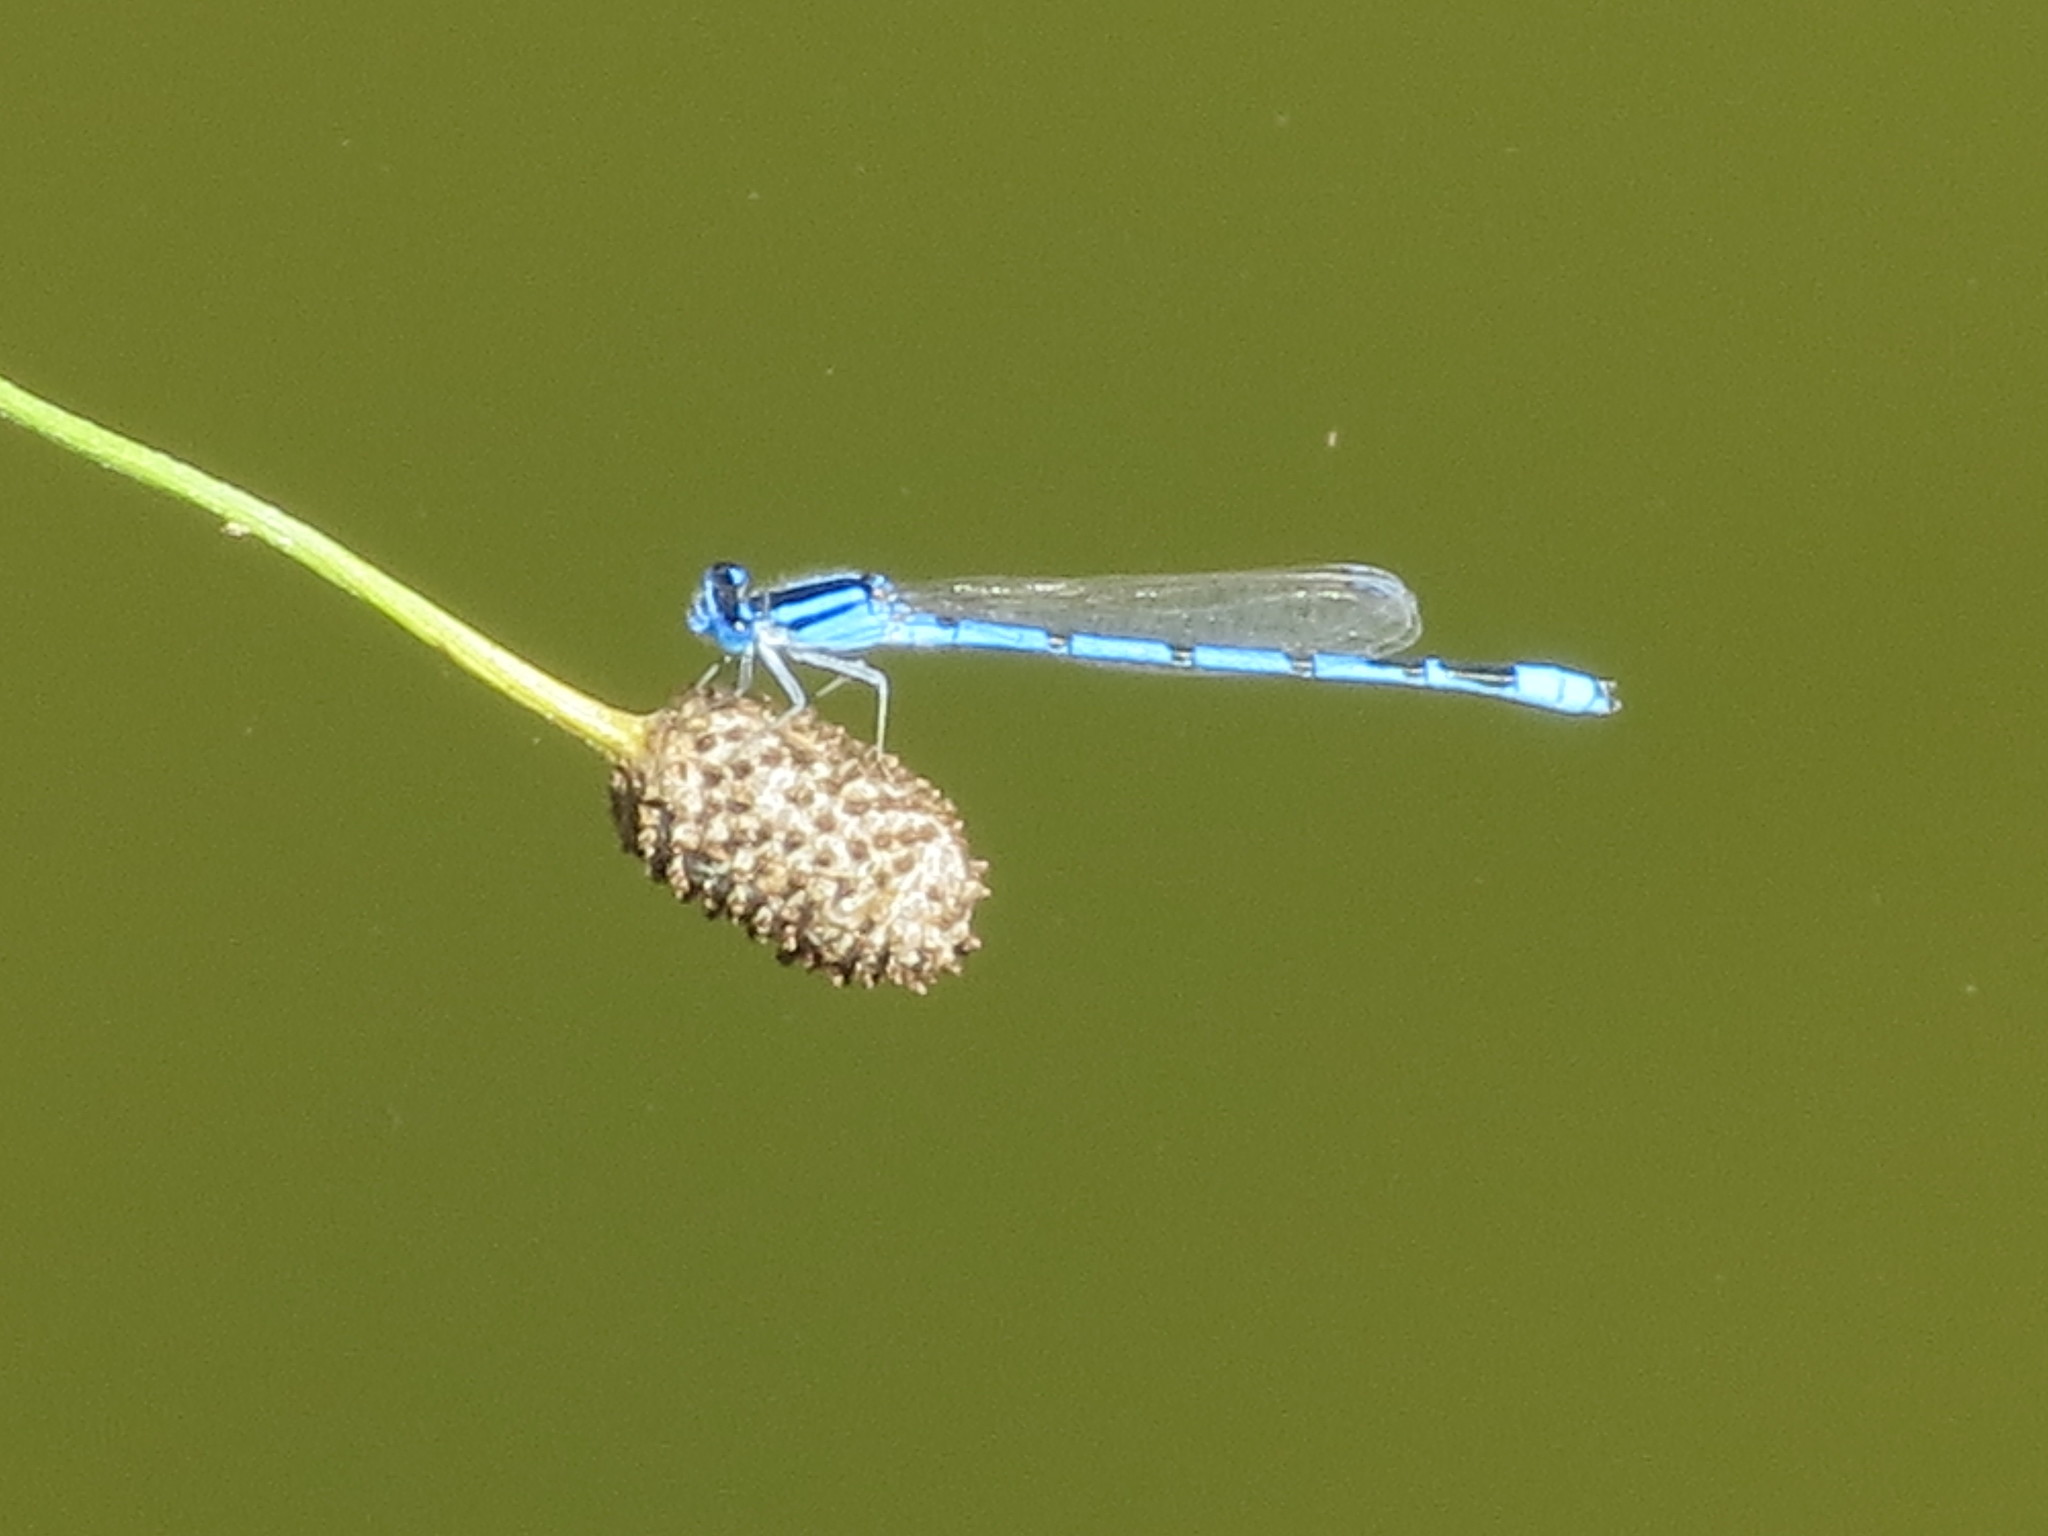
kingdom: Animalia
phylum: Arthropoda
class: Insecta
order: Odonata
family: Coenagrionidae
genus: Enallagma
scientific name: Enallagma civile
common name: Damselfly
